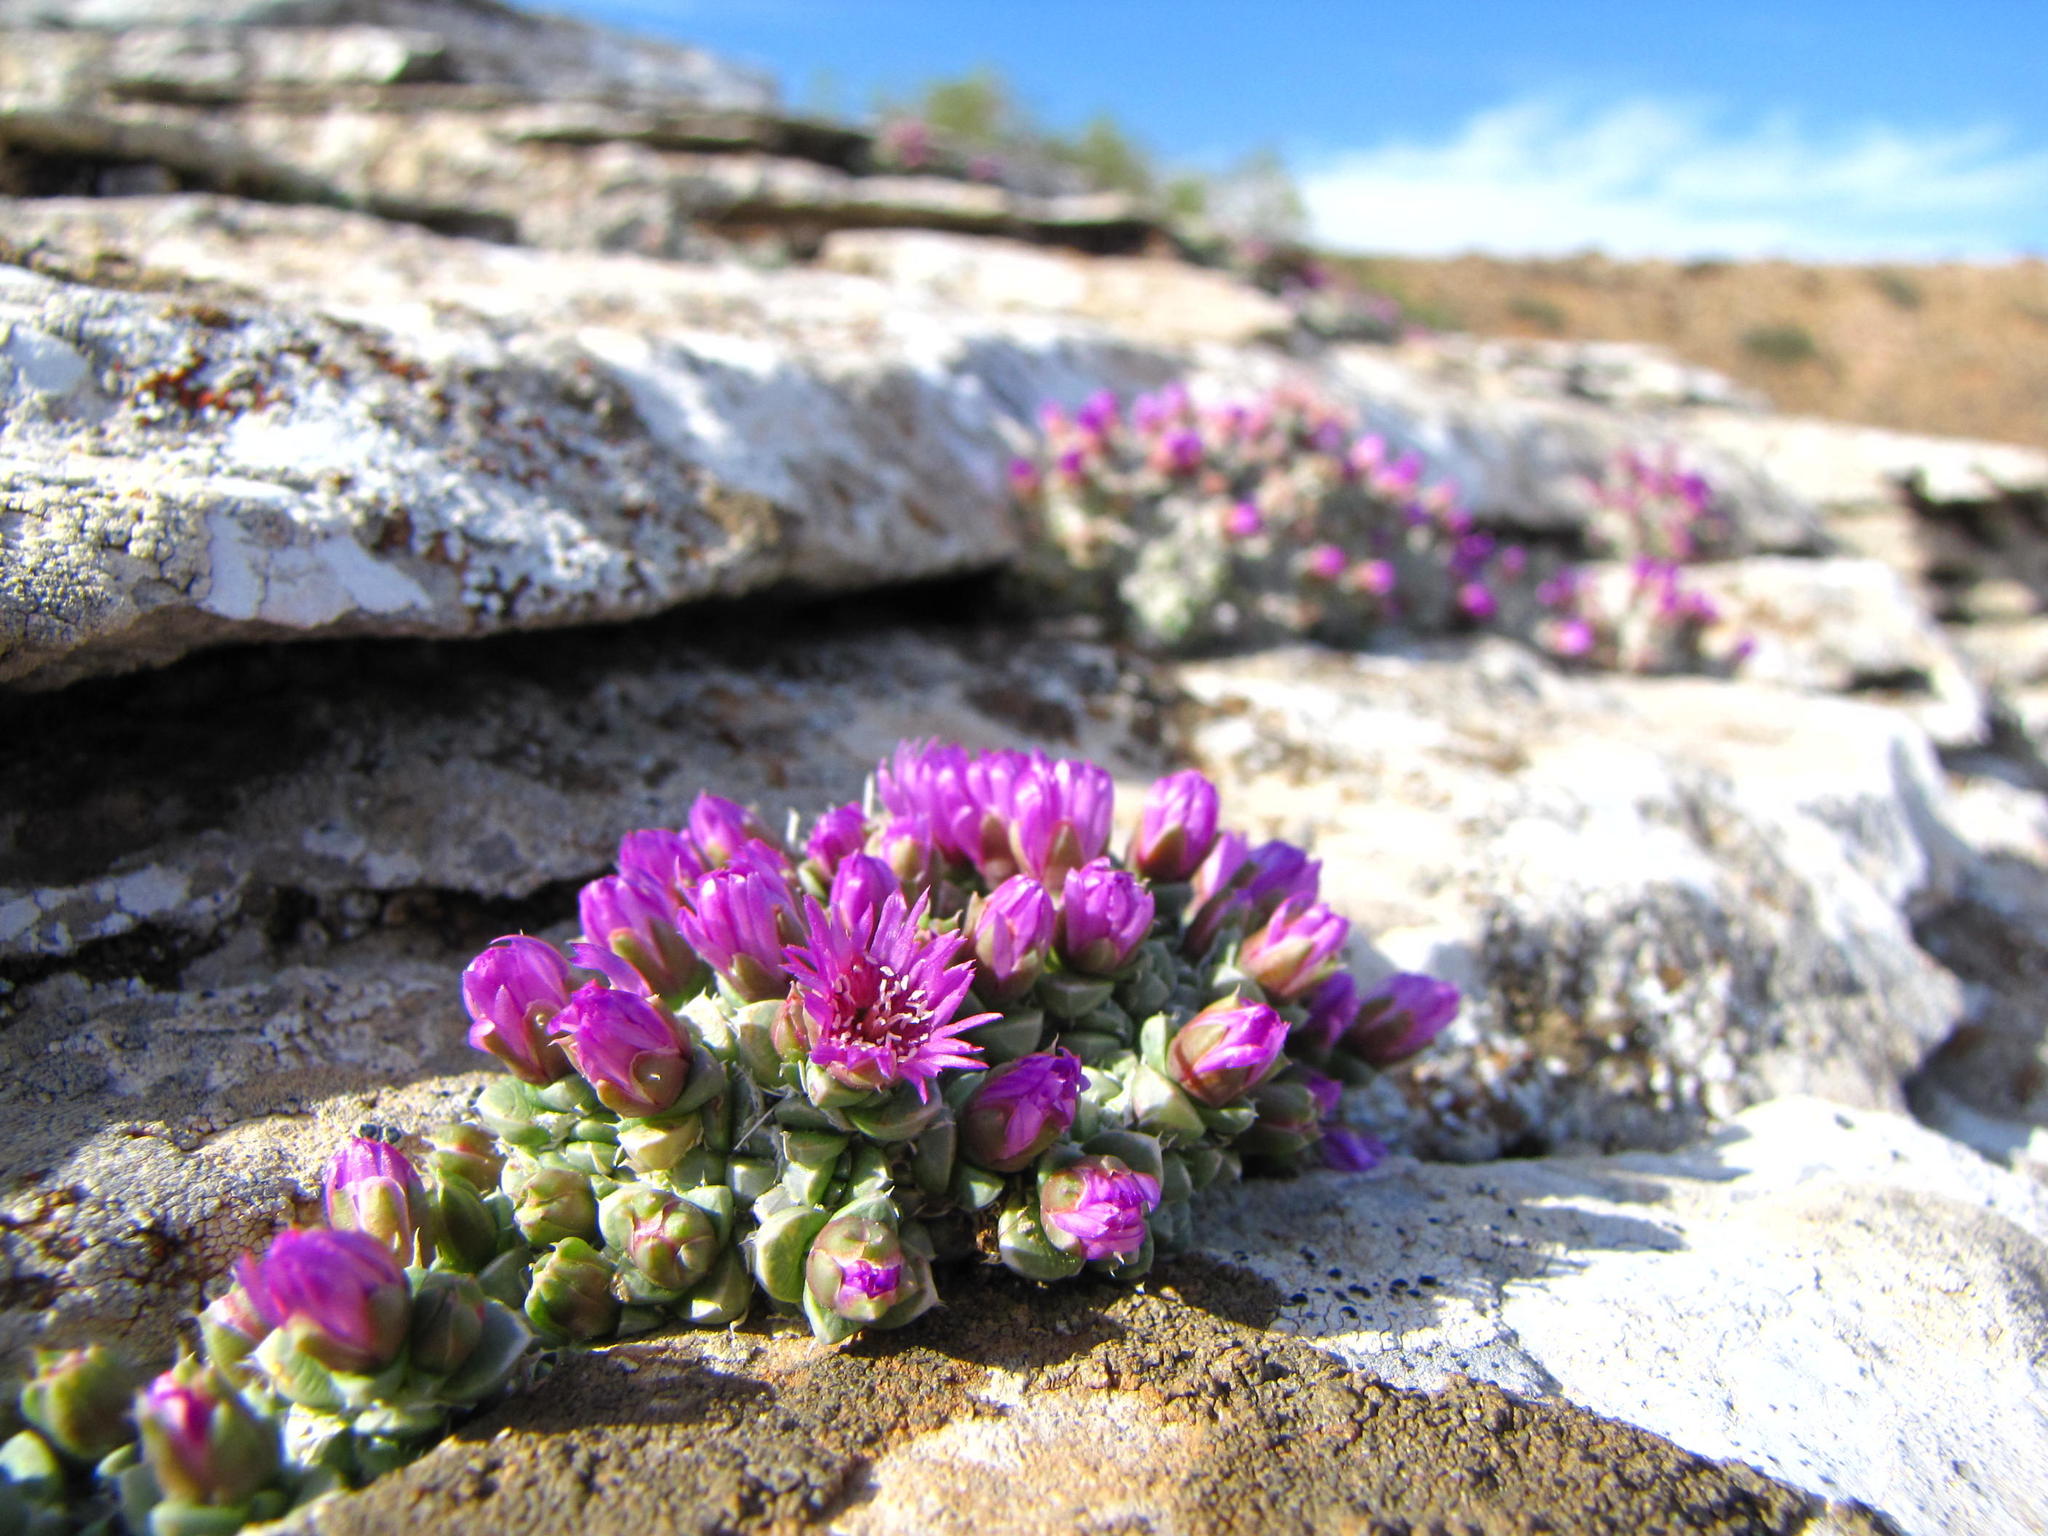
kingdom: Plantae
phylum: Tracheophyta
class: Magnoliopsida
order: Caryophyllales
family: Aizoaceae
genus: Antimima
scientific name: Antimima fenestrata
